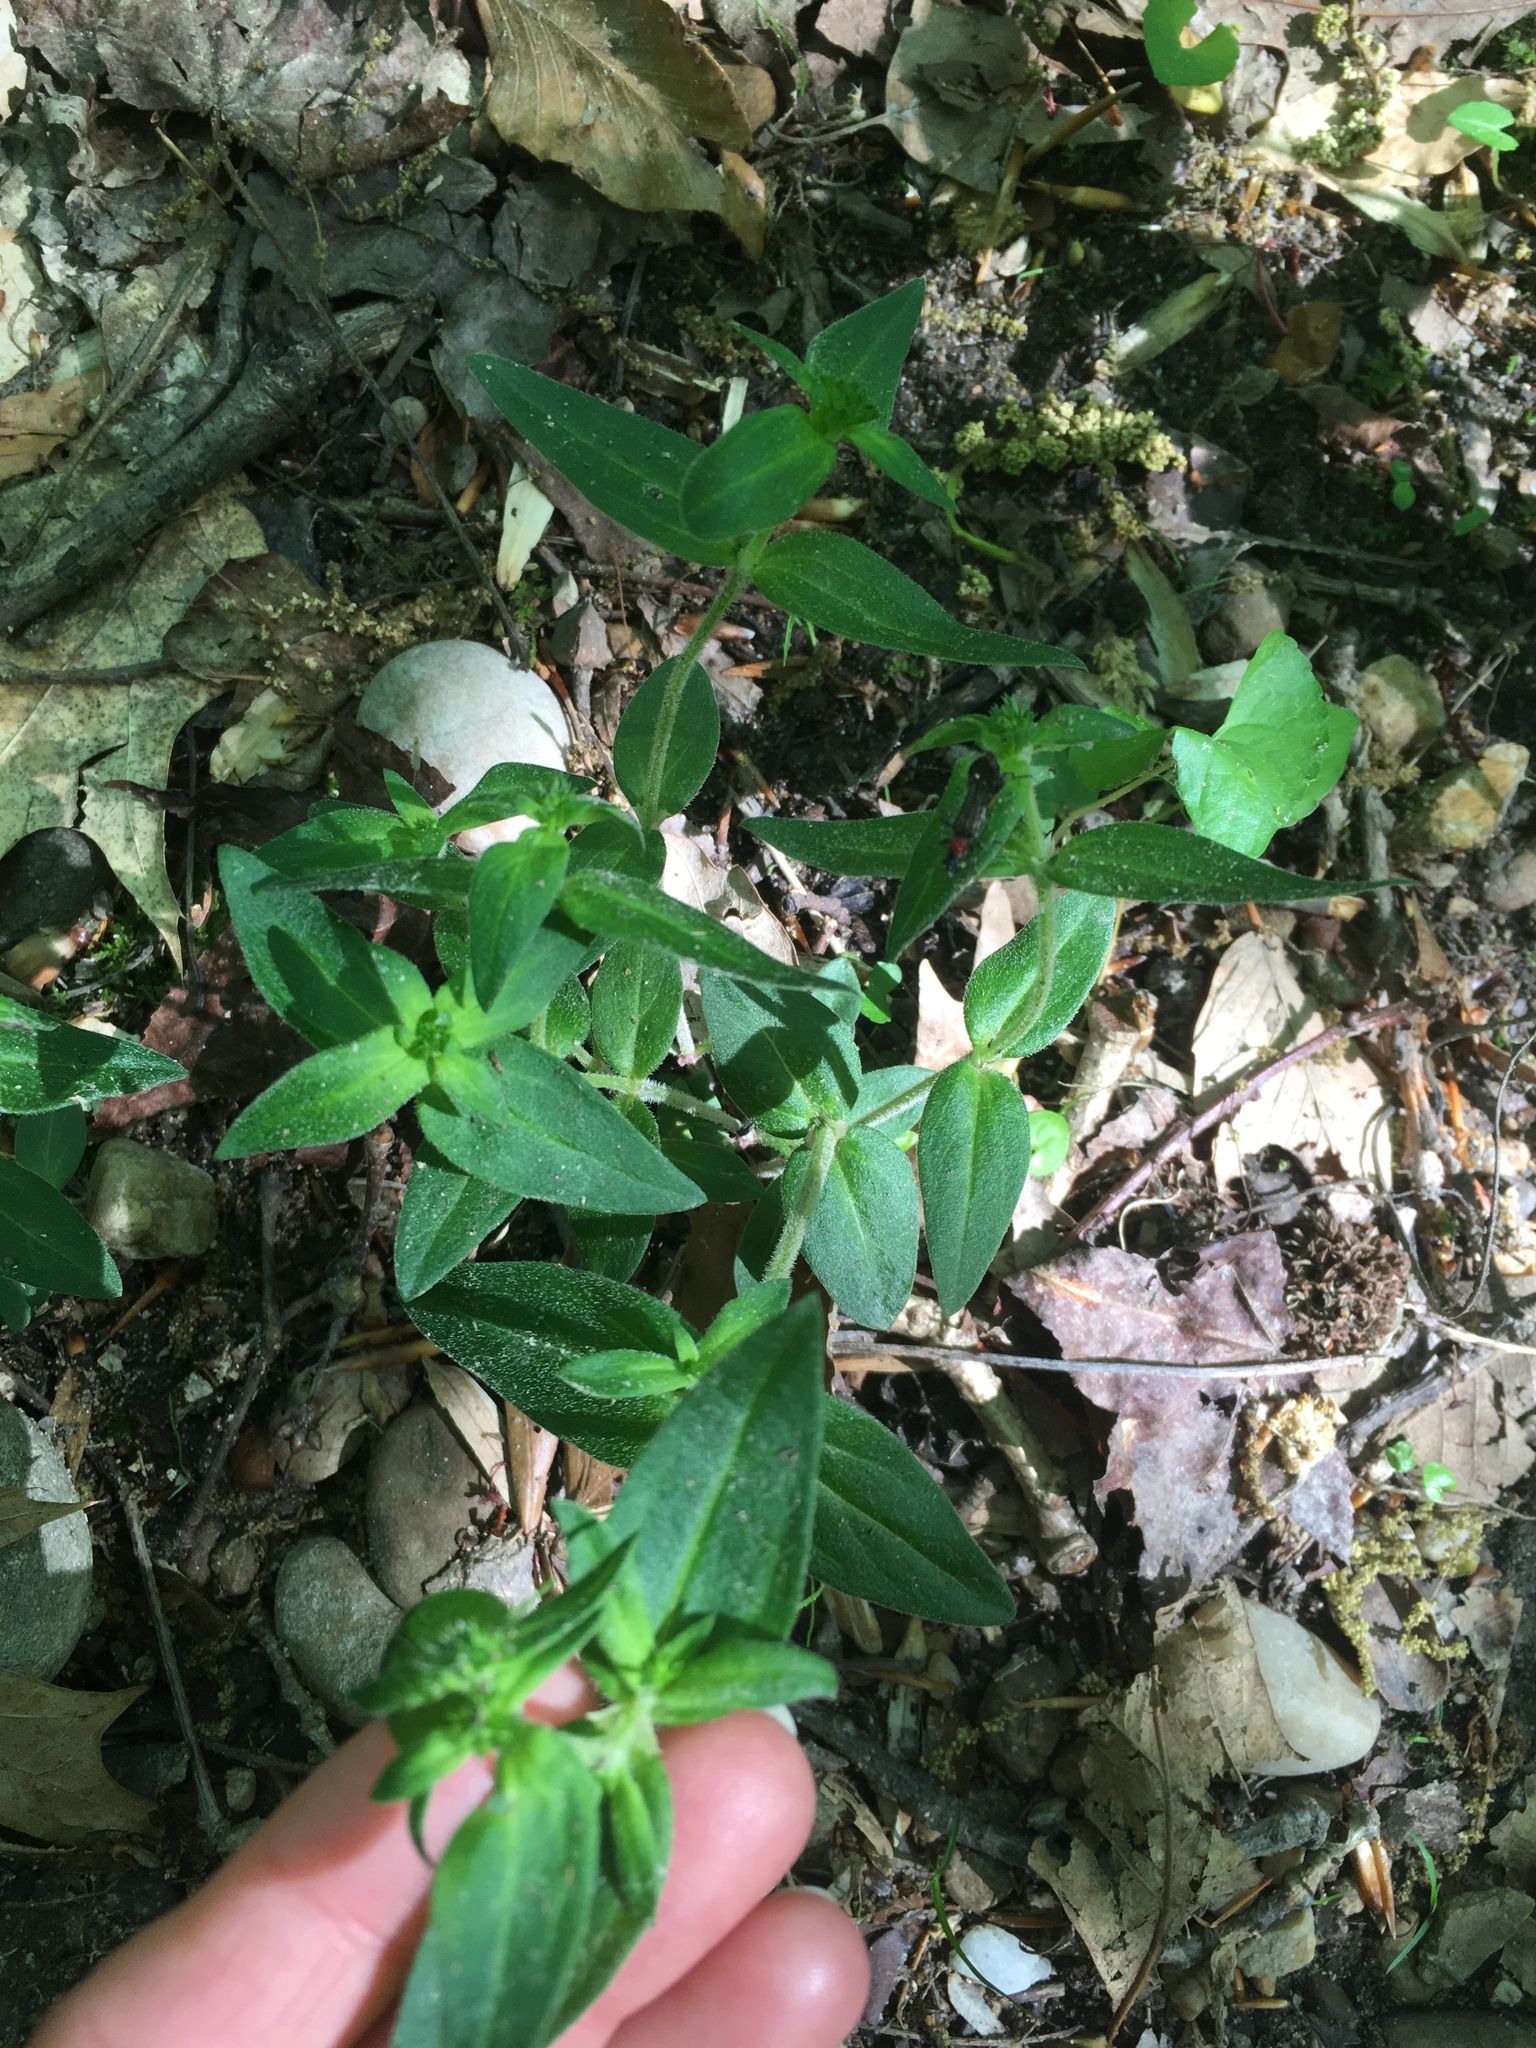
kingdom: Plantae
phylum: Tracheophyta
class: Magnoliopsida
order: Gentianales
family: Rubiaceae
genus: Houstonia
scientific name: Houstonia purpurea
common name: Summer bluet
